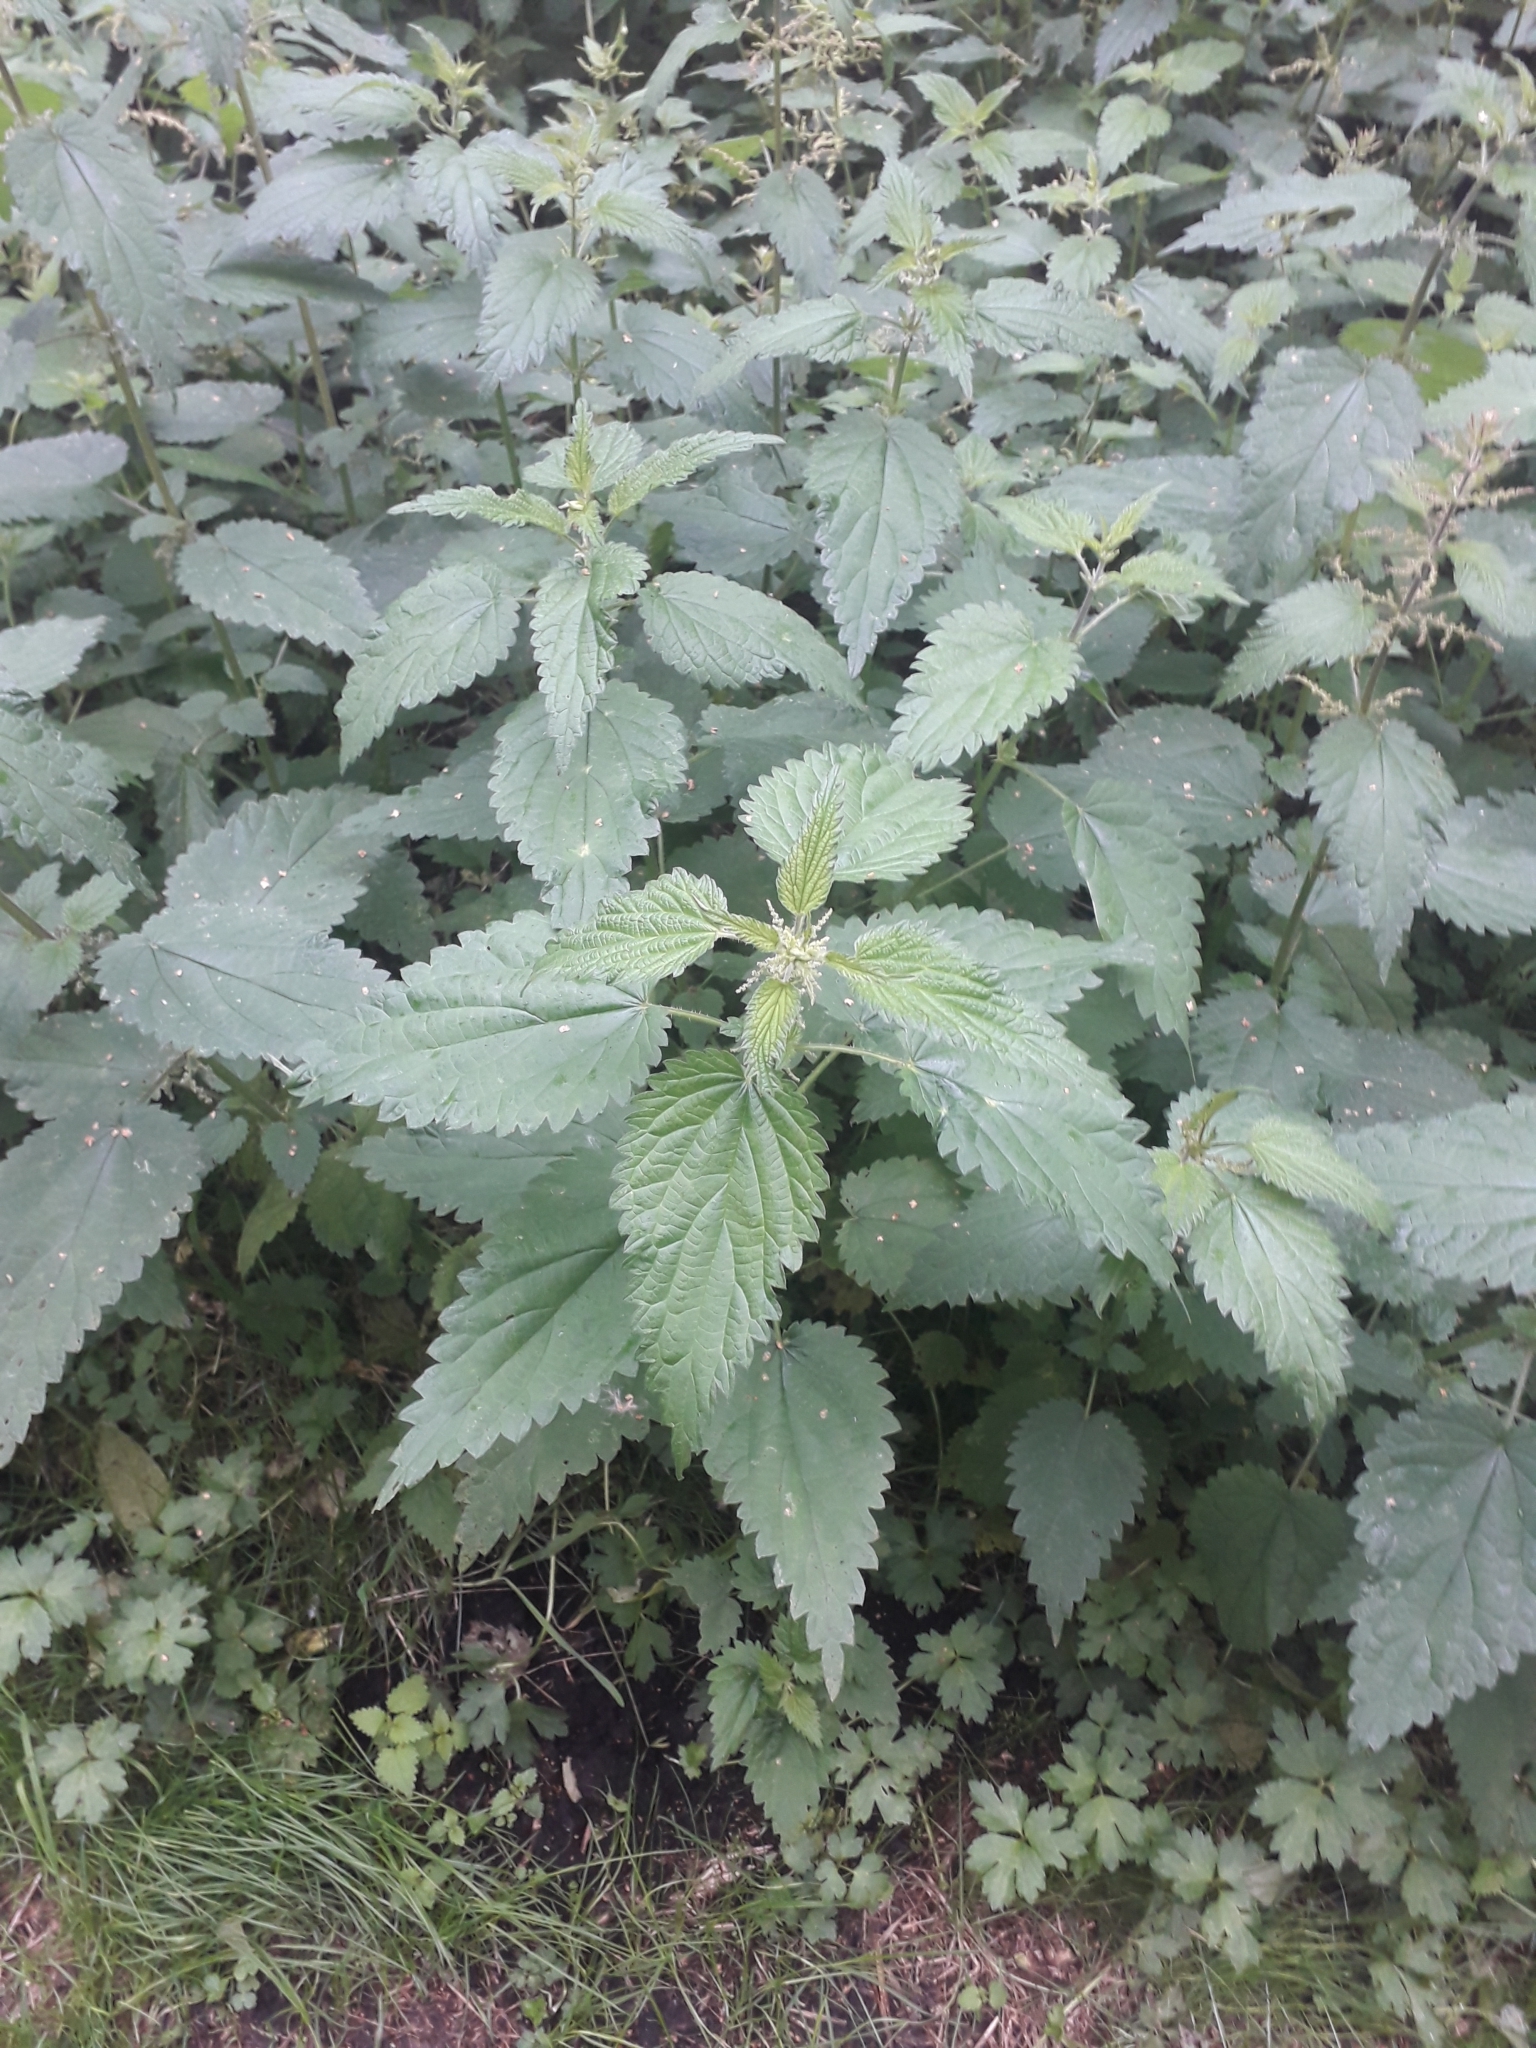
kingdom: Plantae
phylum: Tracheophyta
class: Magnoliopsida
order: Rosales
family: Urticaceae
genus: Urtica
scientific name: Urtica dioica
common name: Common nettle
